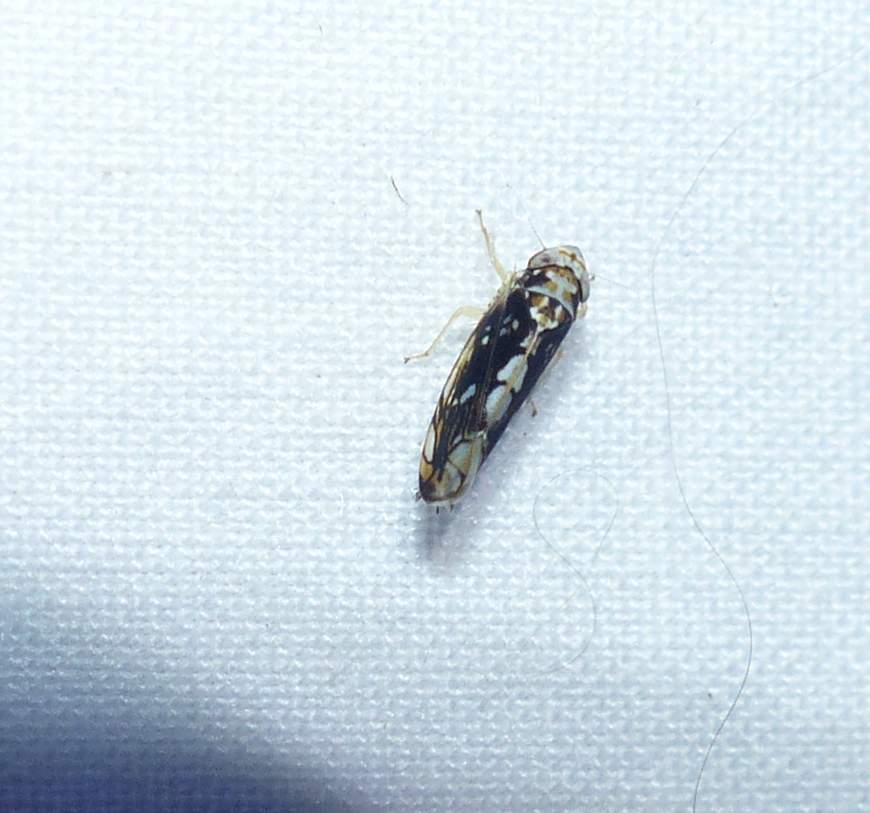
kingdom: Animalia
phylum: Arthropoda
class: Insecta
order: Hemiptera
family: Cicadellidae
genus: Scaphoideus
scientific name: Scaphoideus melanotus
